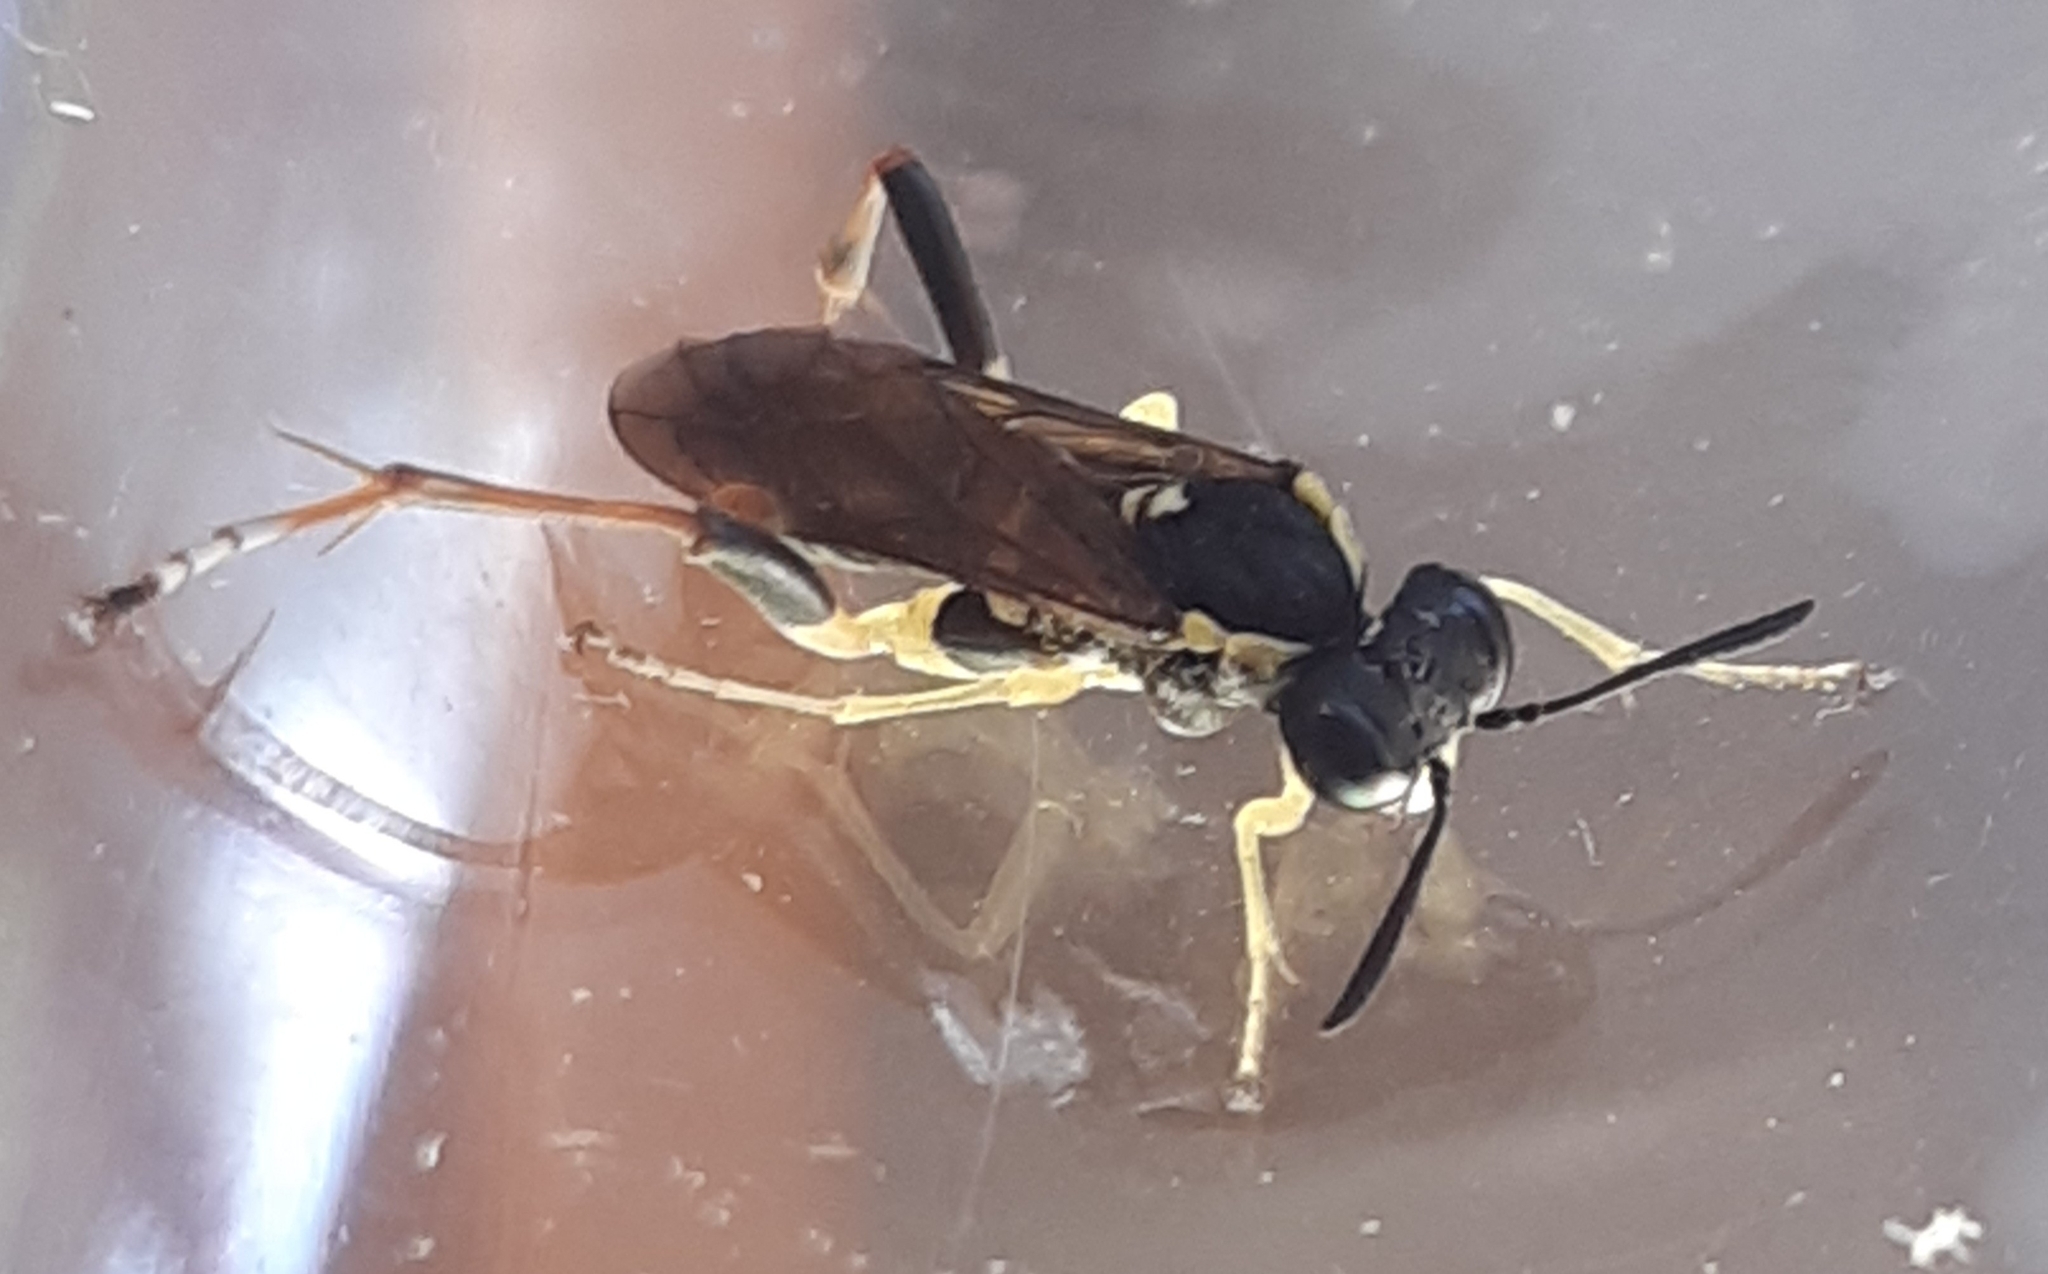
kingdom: Animalia
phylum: Arthropoda
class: Insecta
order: Hymenoptera
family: Tenthredinidae
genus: Macrophya
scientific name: Macrophya postica
